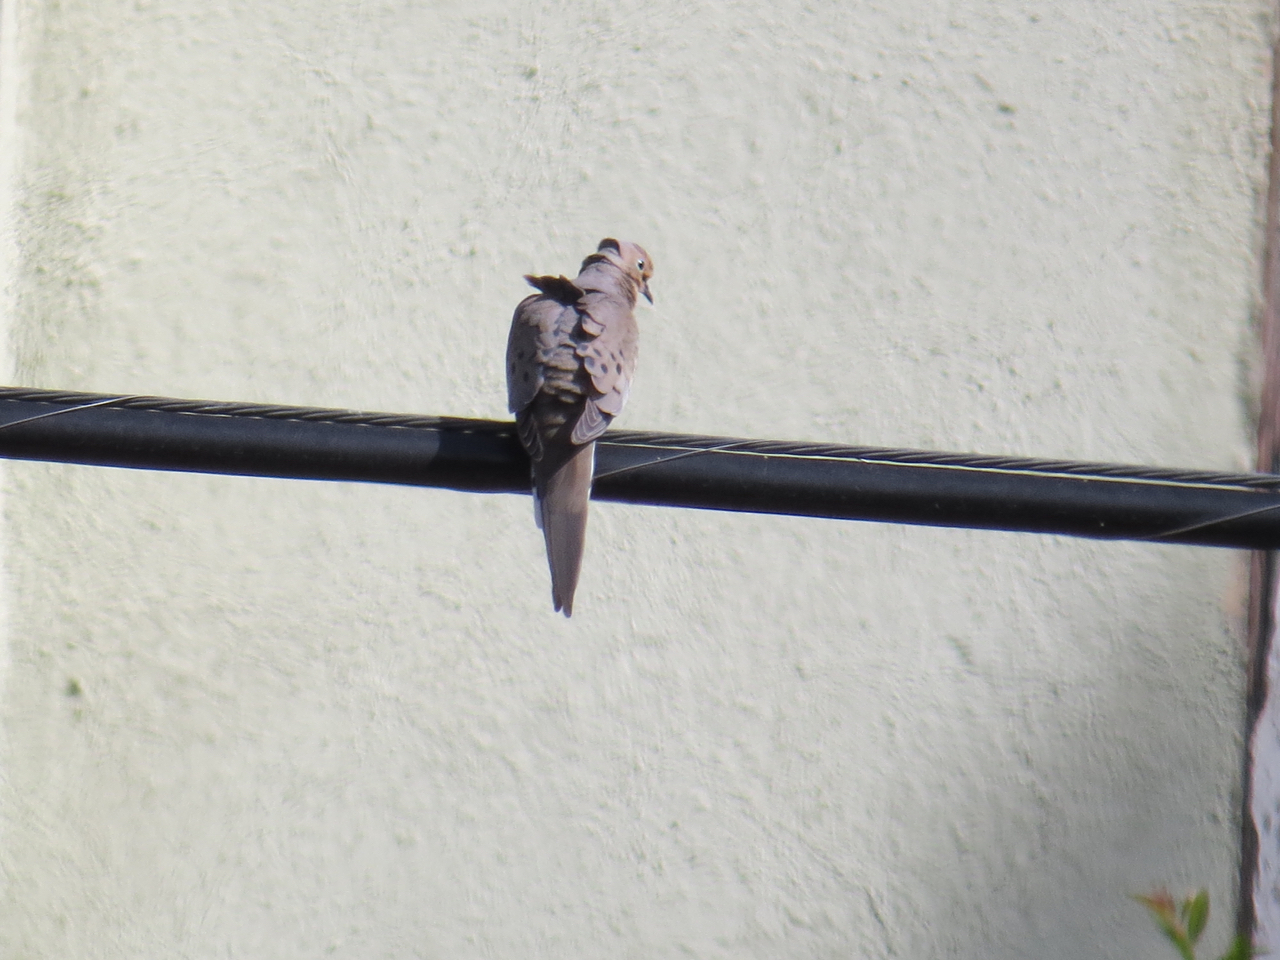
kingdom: Animalia
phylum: Chordata
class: Aves
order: Columbiformes
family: Columbidae
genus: Zenaida
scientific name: Zenaida macroura
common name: Mourning dove
